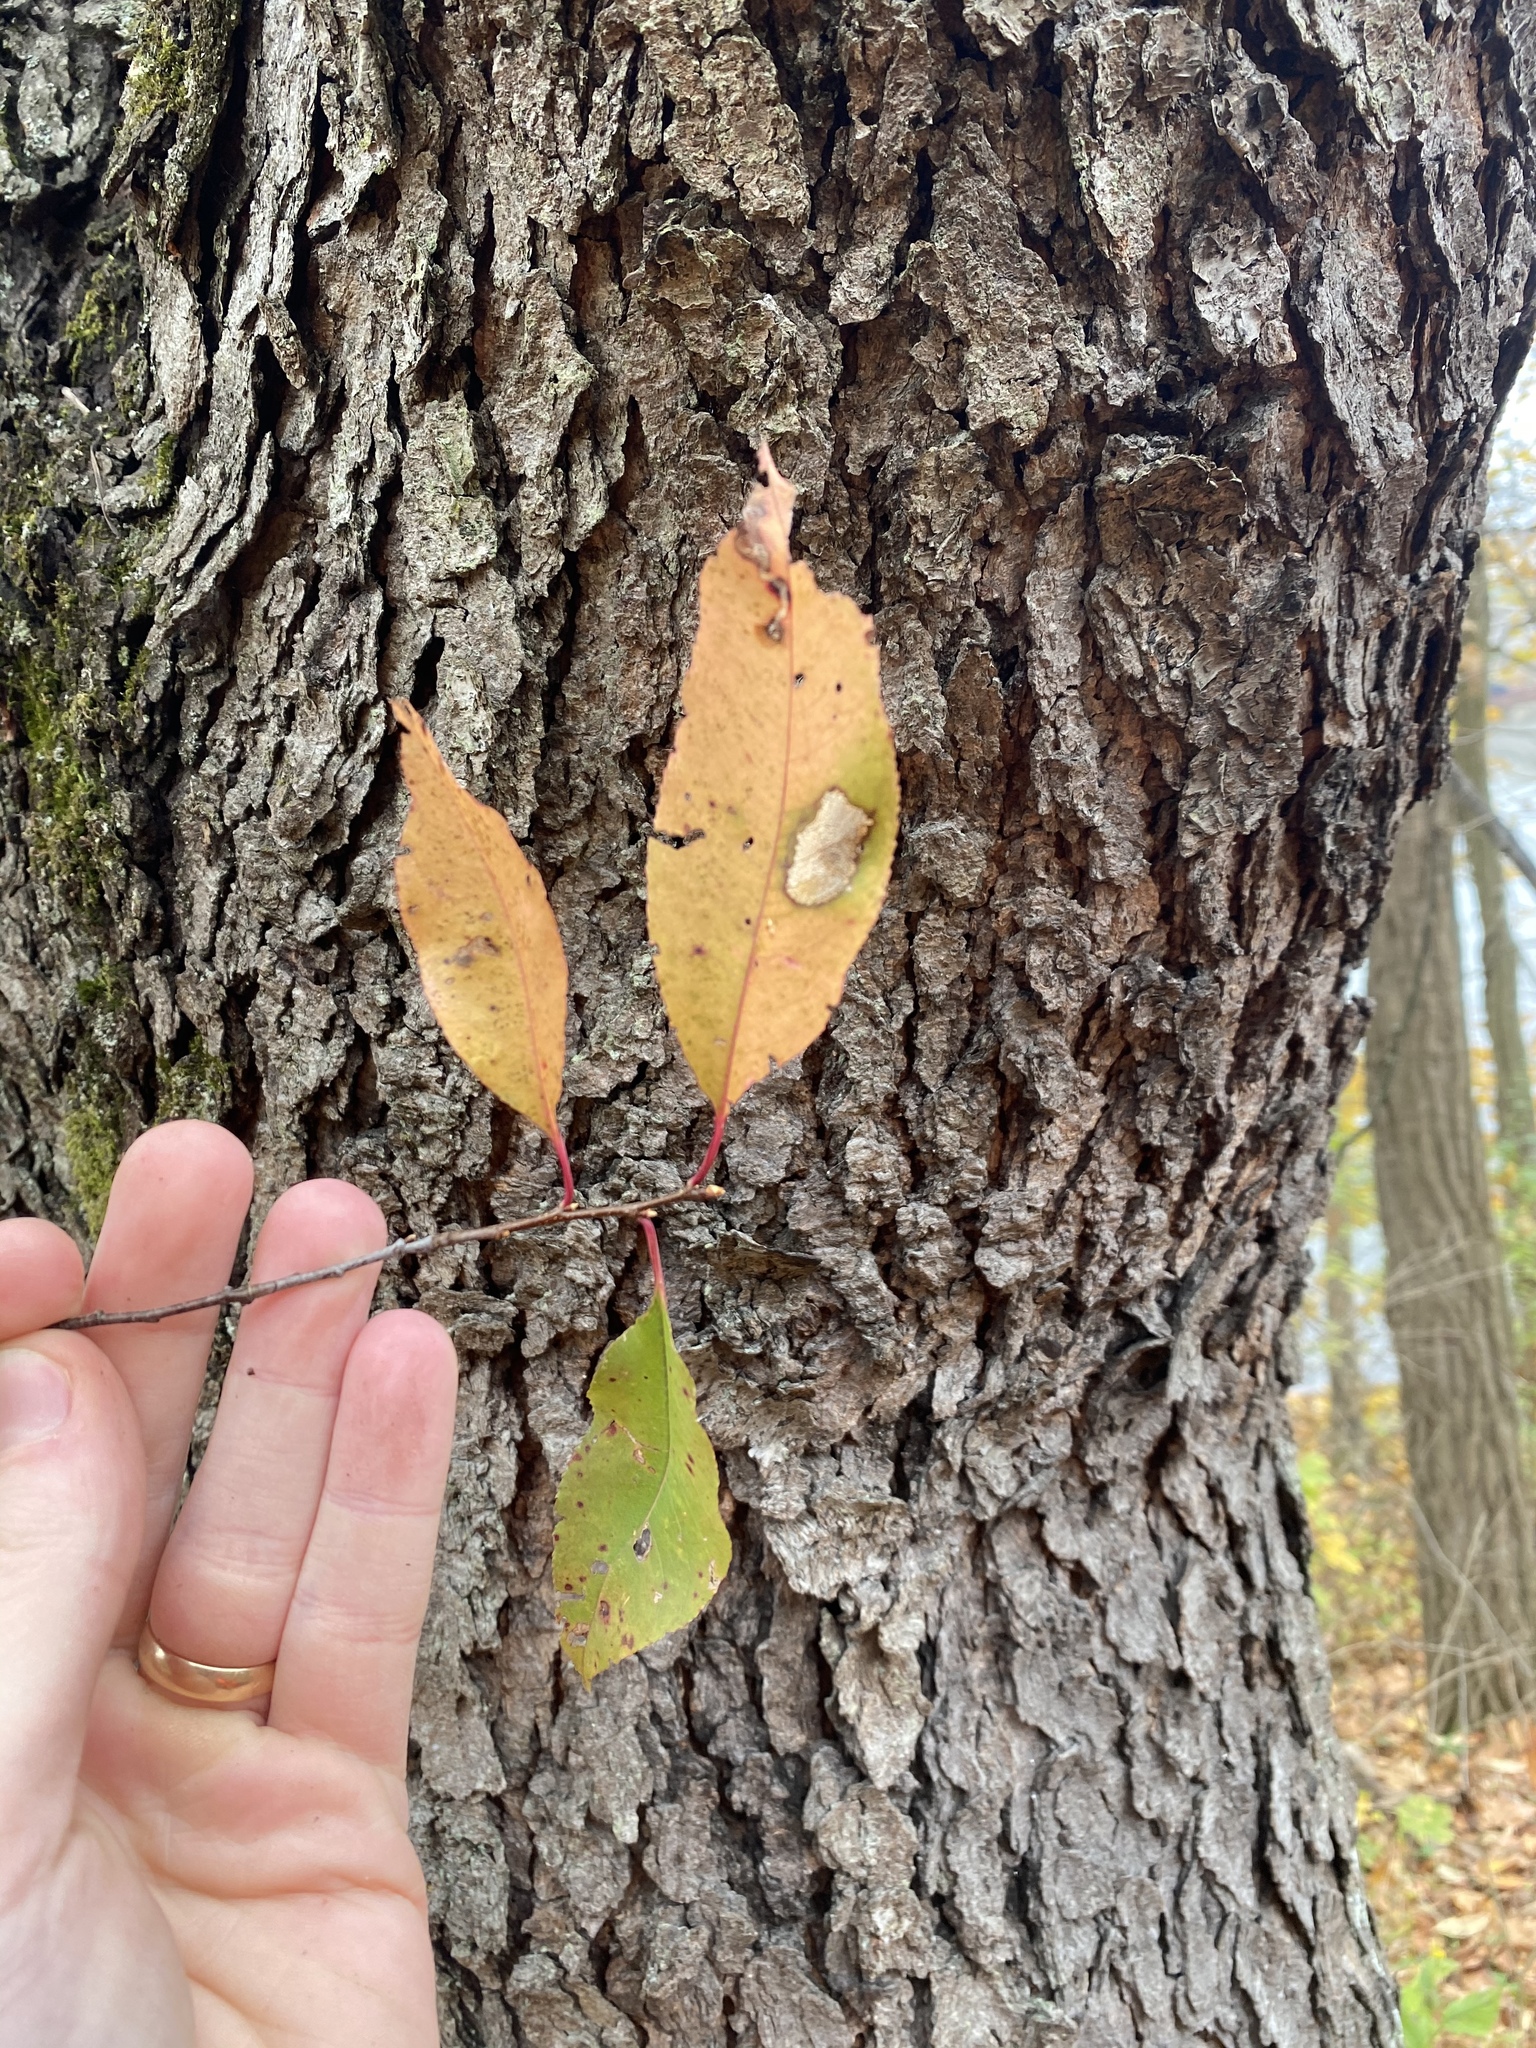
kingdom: Plantae
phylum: Tracheophyta
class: Magnoliopsida
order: Rosales
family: Rosaceae
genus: Prunus
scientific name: Prunus serotina
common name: Black cherry
